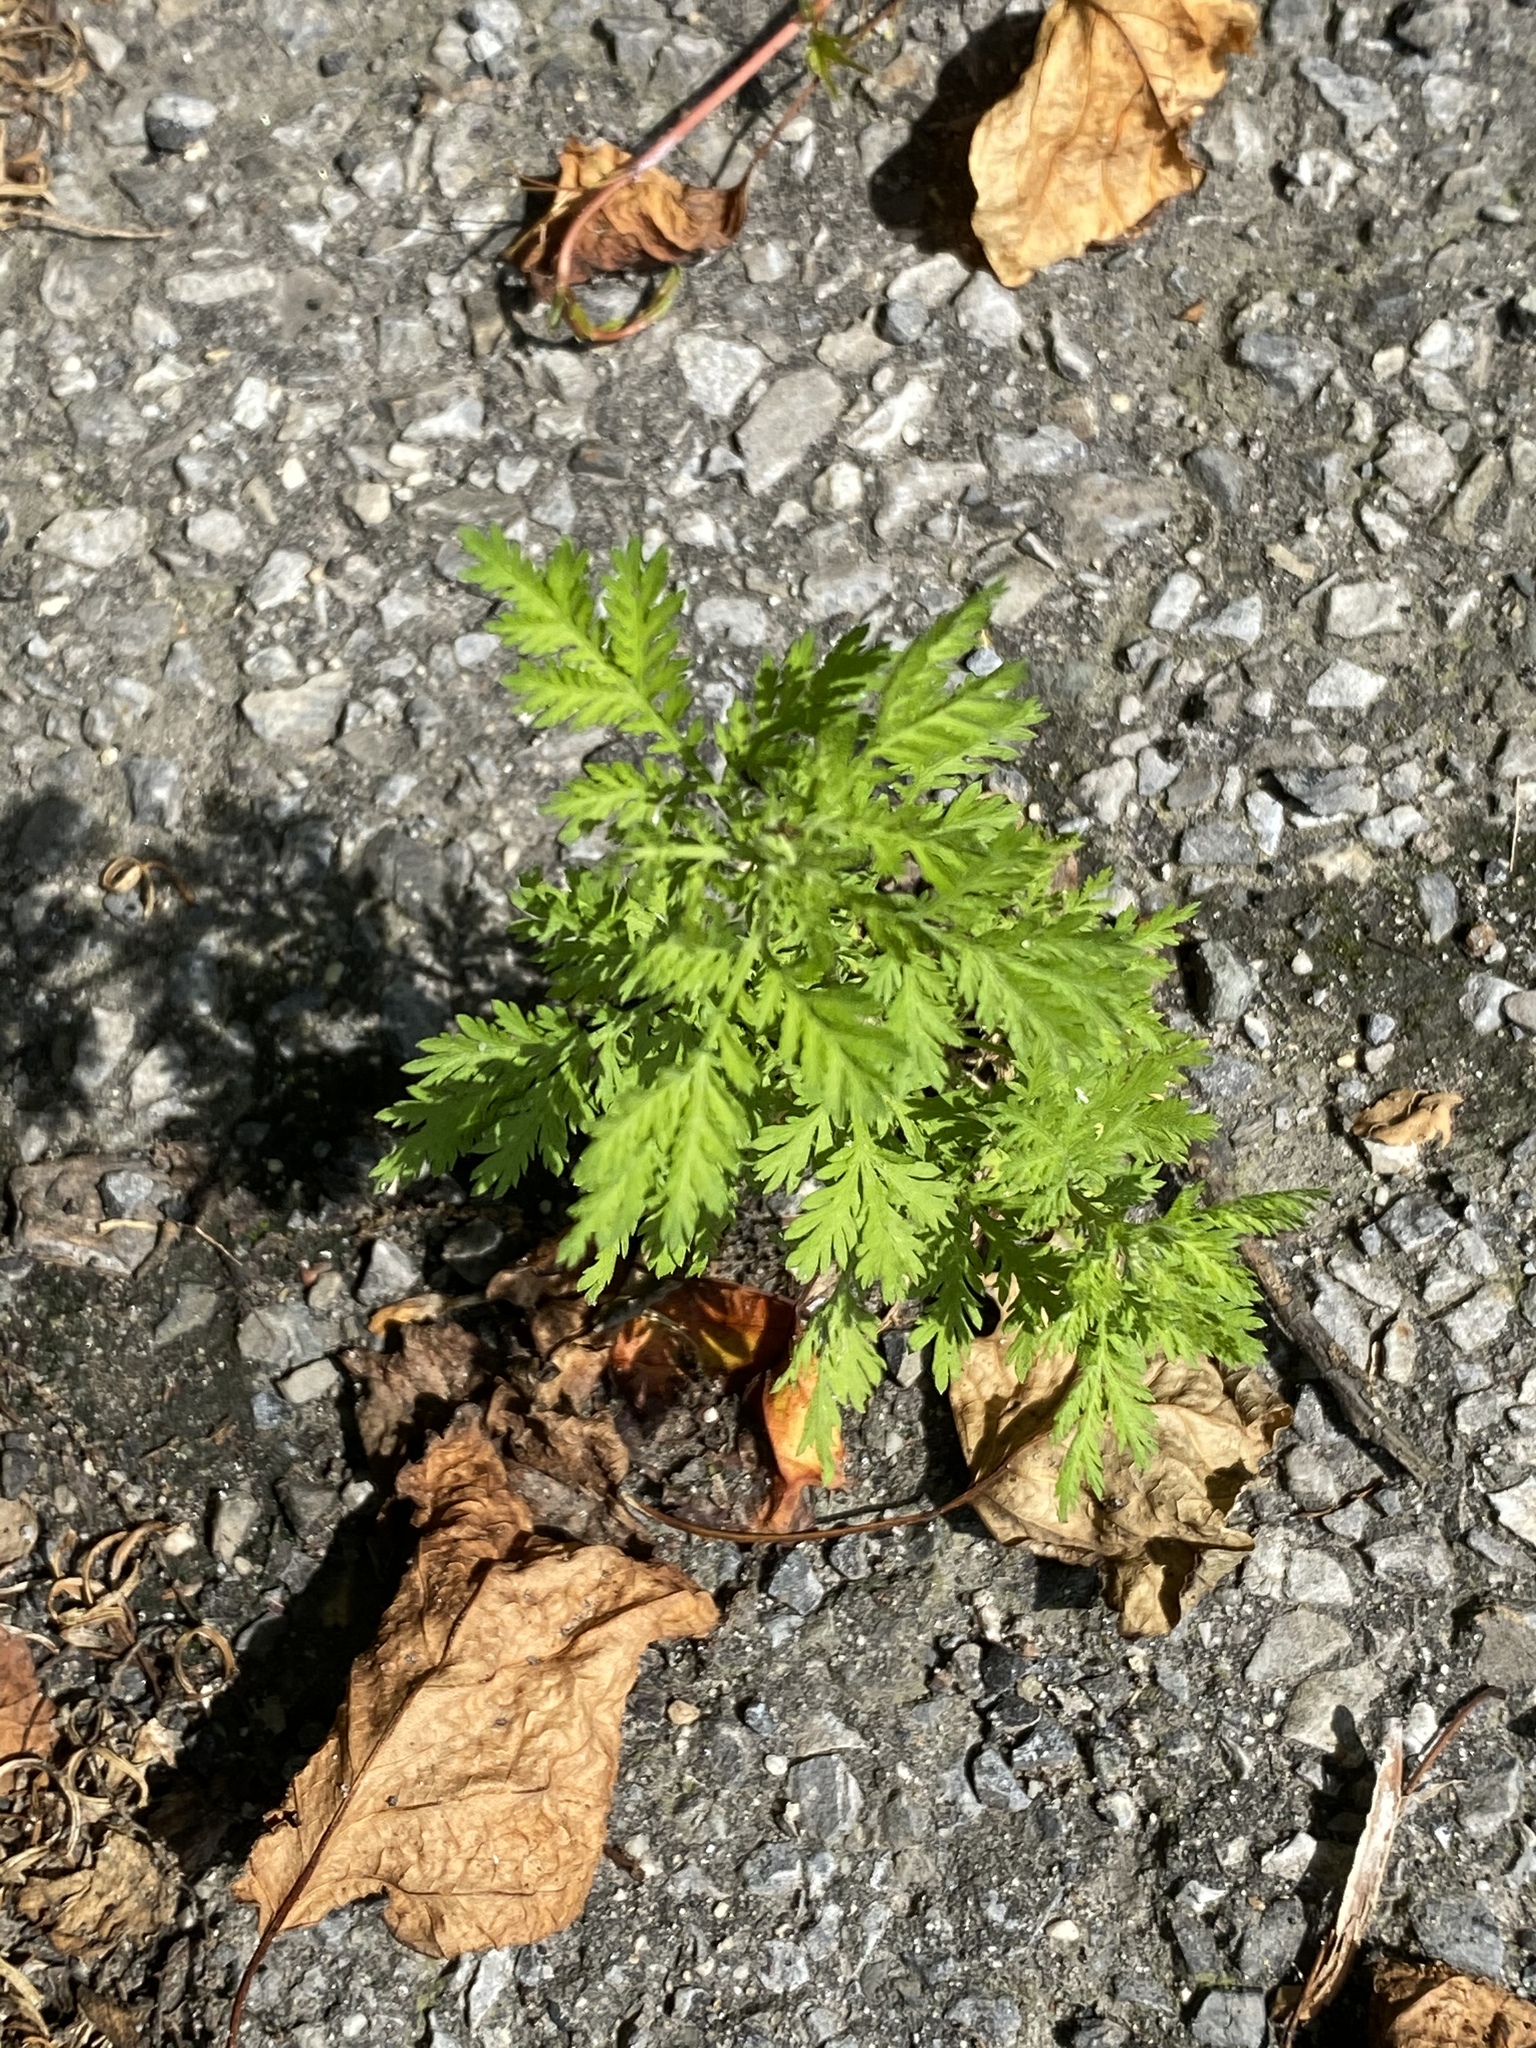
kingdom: Plantae
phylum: Tracheophyta
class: Magnoliopsida
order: Asterales
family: Asteraceae
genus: Artemisia
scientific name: Artemisia annua
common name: Sweet sagewort
